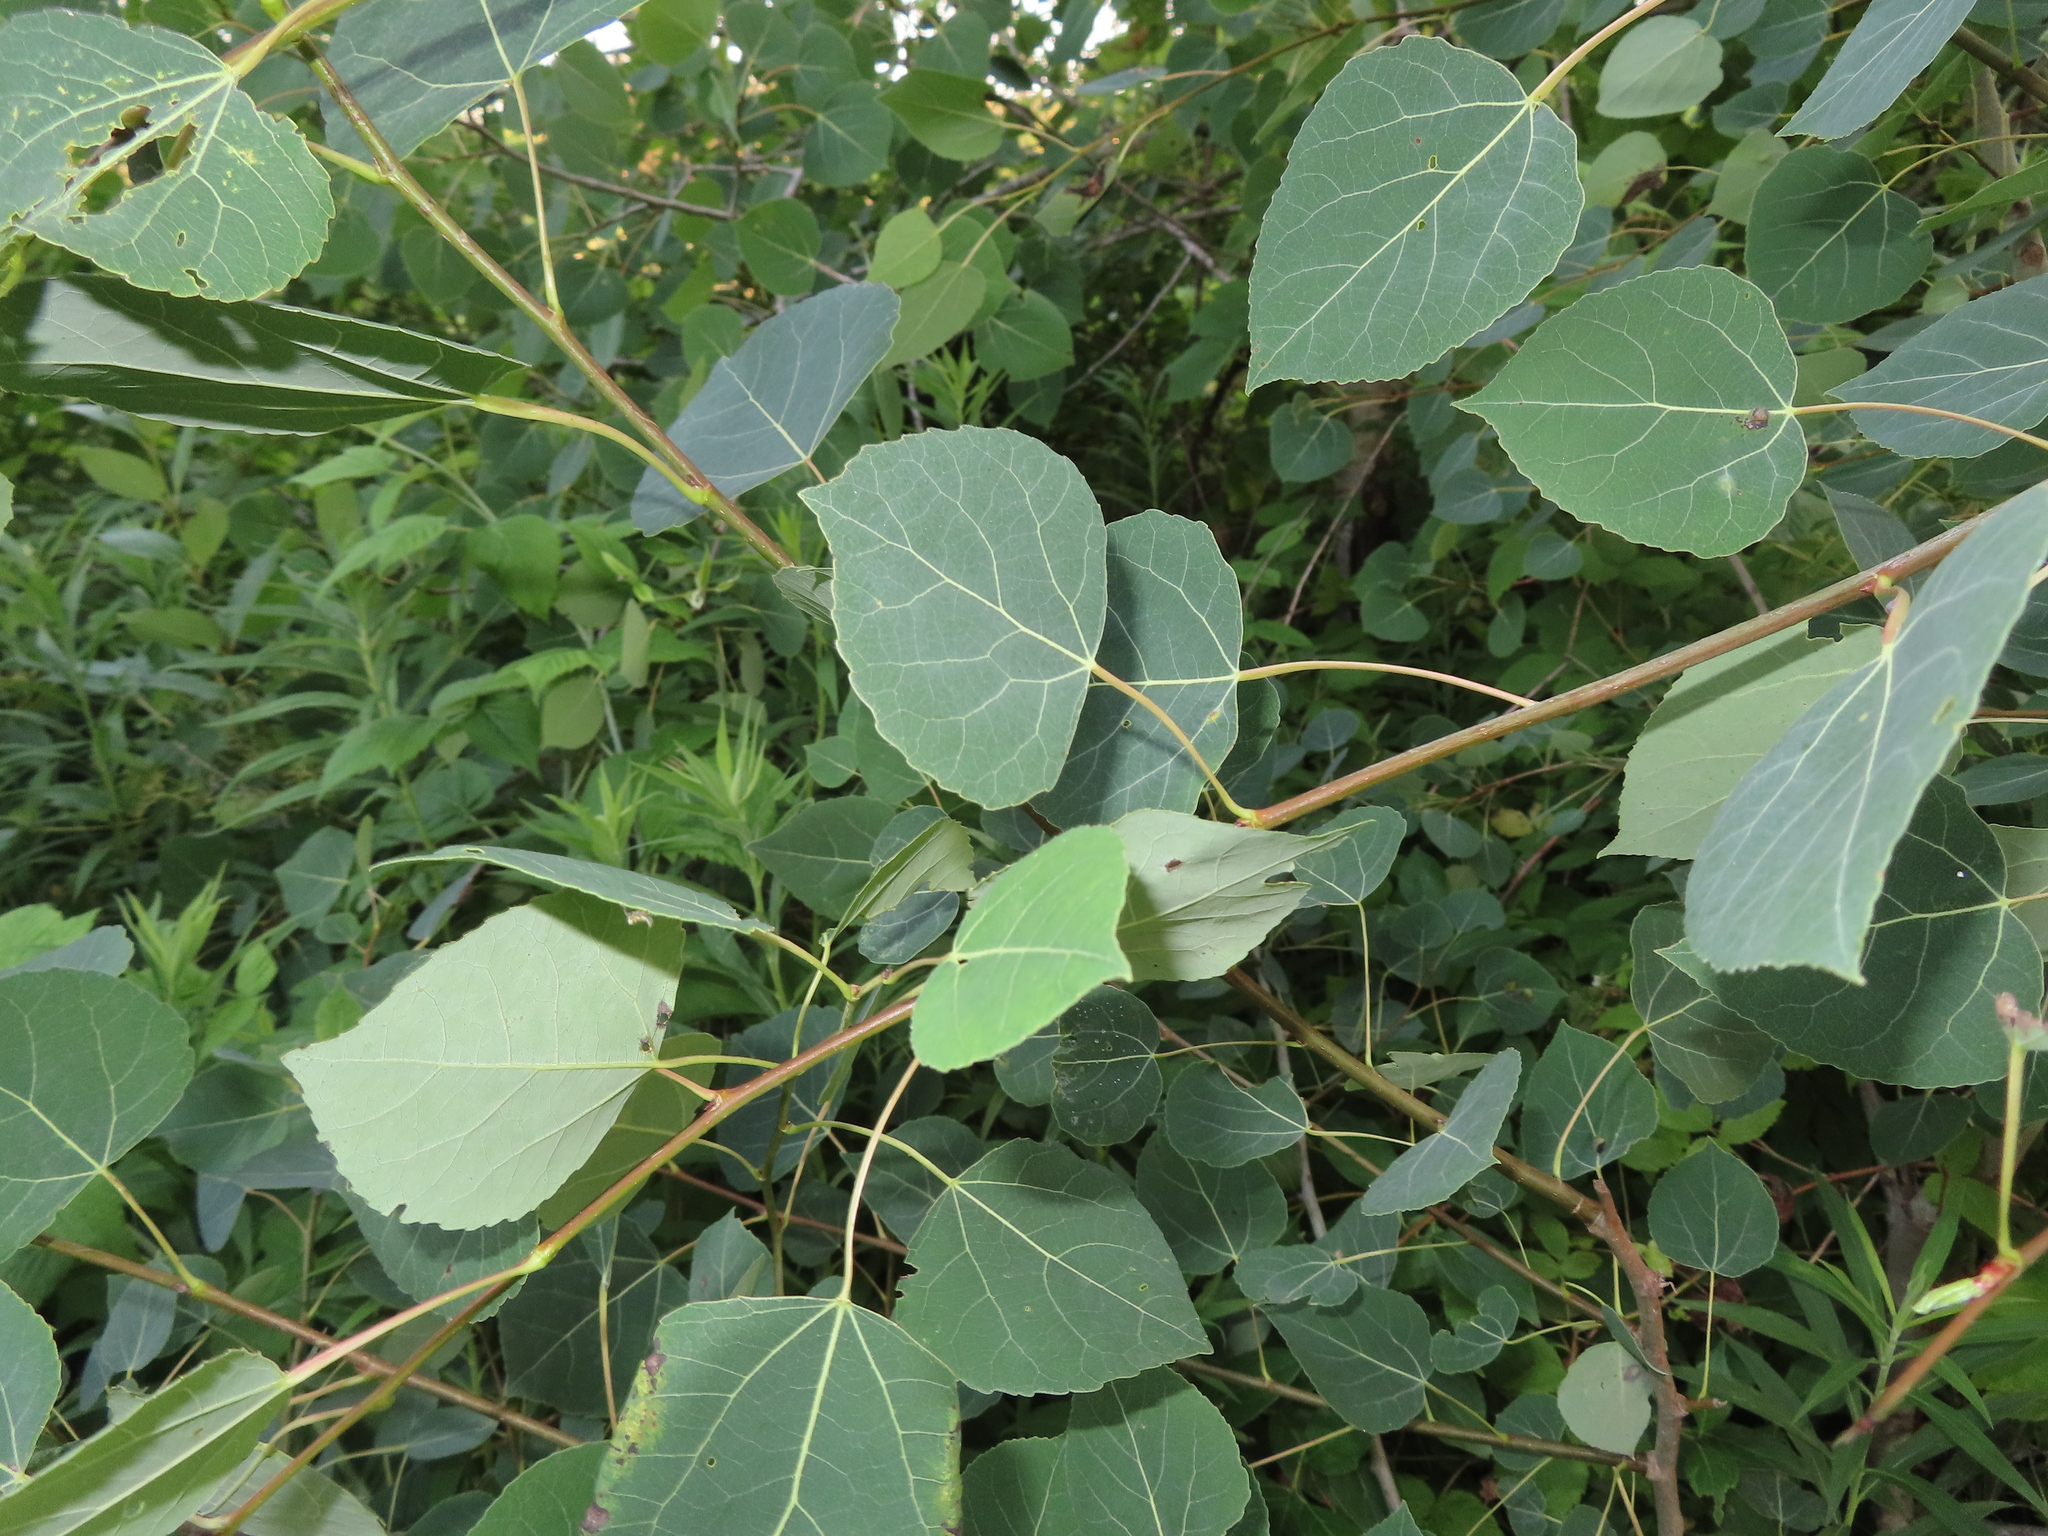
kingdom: Plantae
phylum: Tracheophyta
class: Magnoliopsida
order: Malpighiales
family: Salicaceae
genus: Populus
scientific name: Populus tremuloides
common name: Quaking aspen
